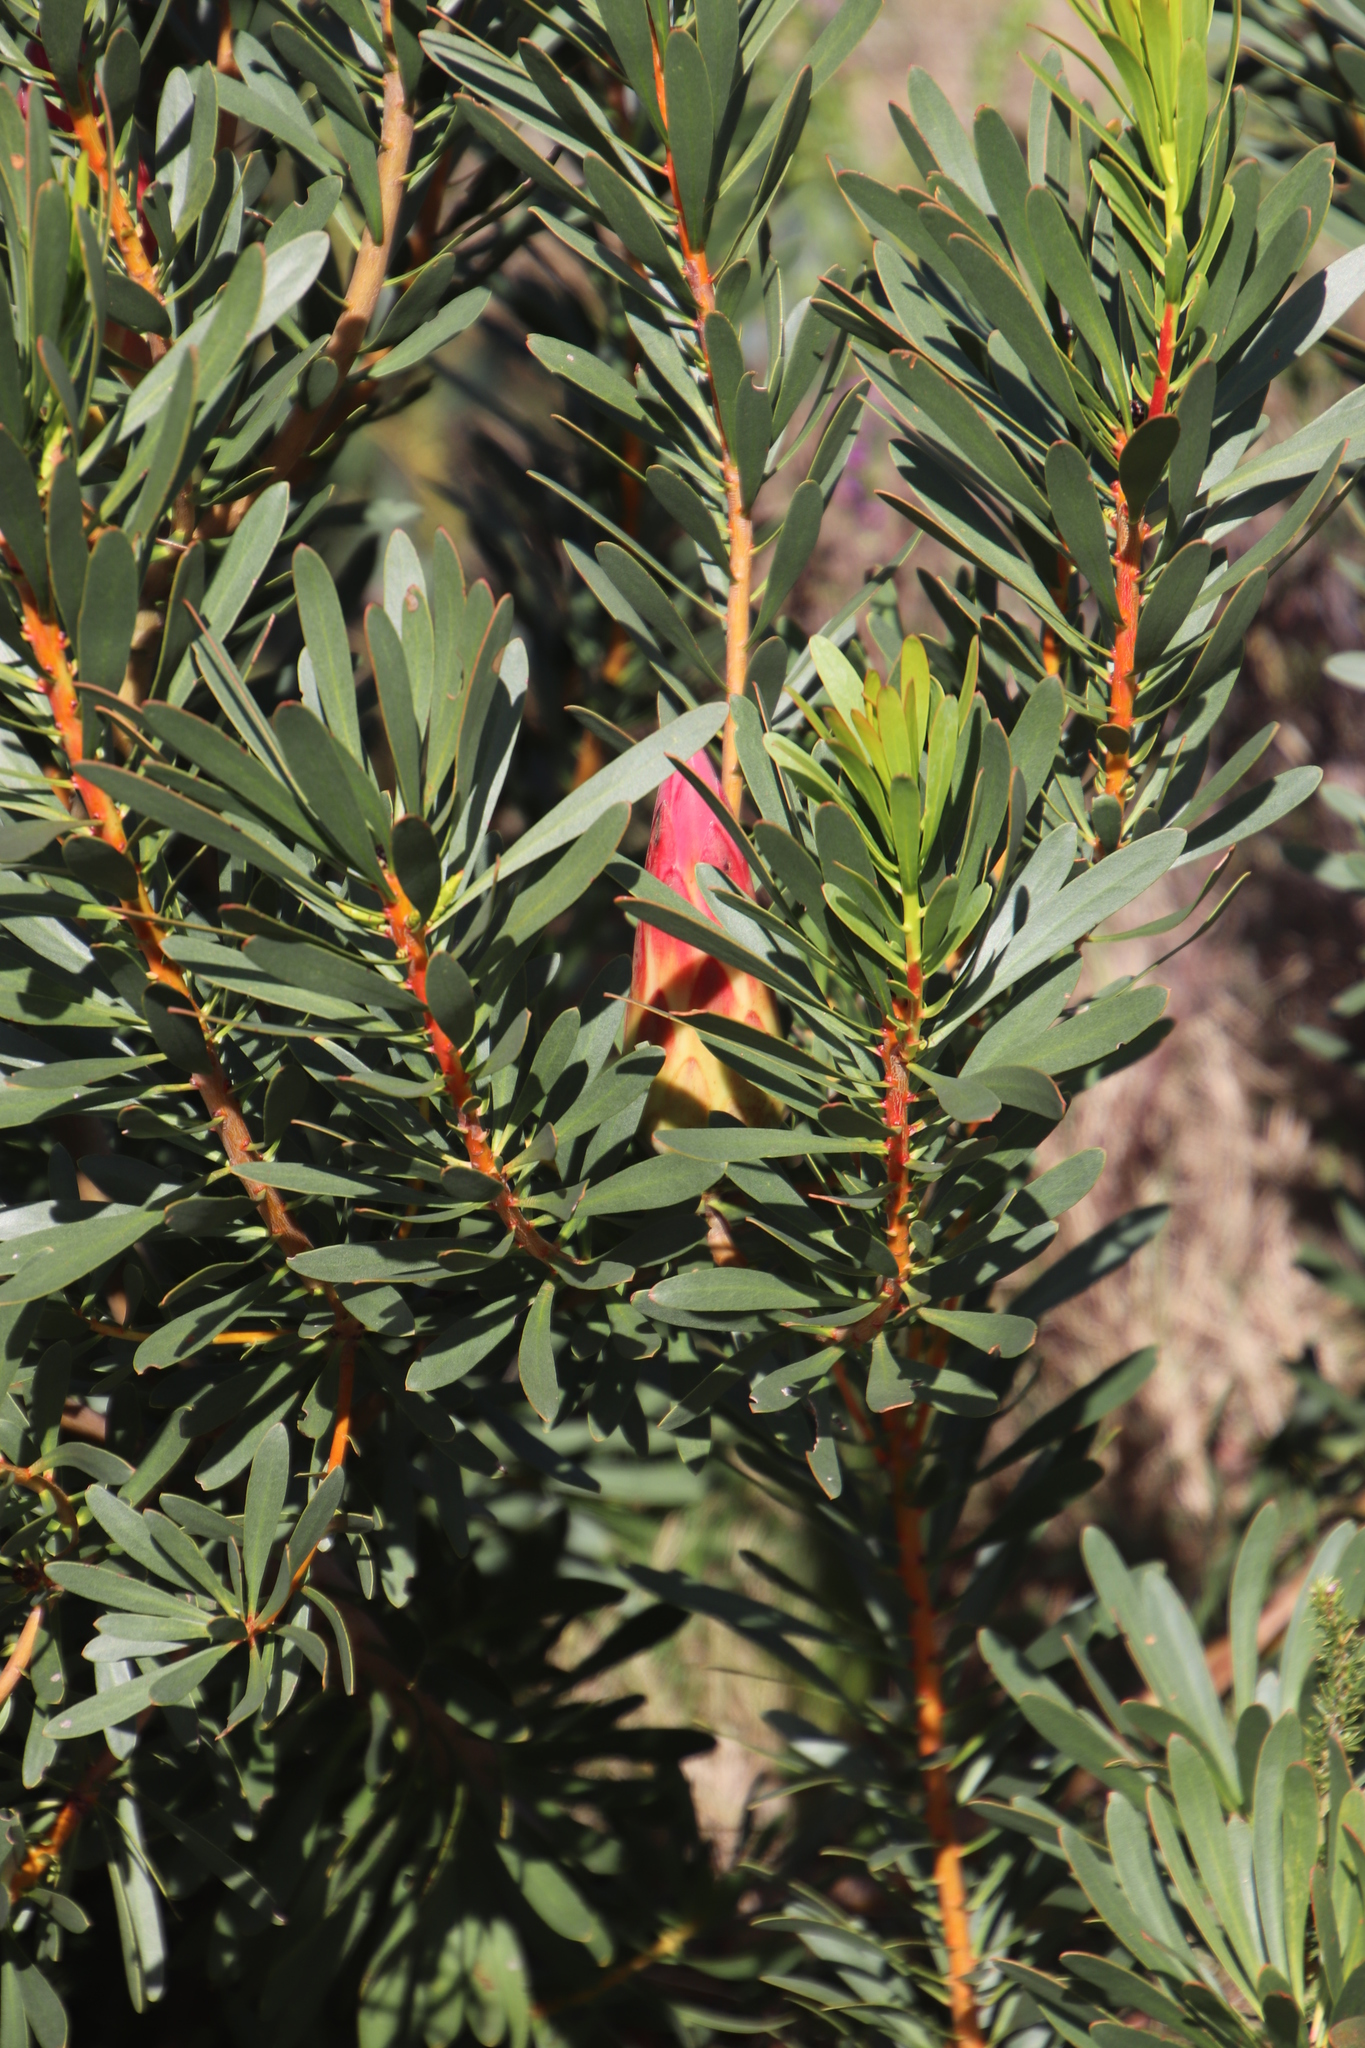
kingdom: Plantae
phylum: Tracheophyta
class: Magnoliopsida
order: Proteales
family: Proteaceae
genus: Protea
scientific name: Protea repens
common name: Sugarbush
